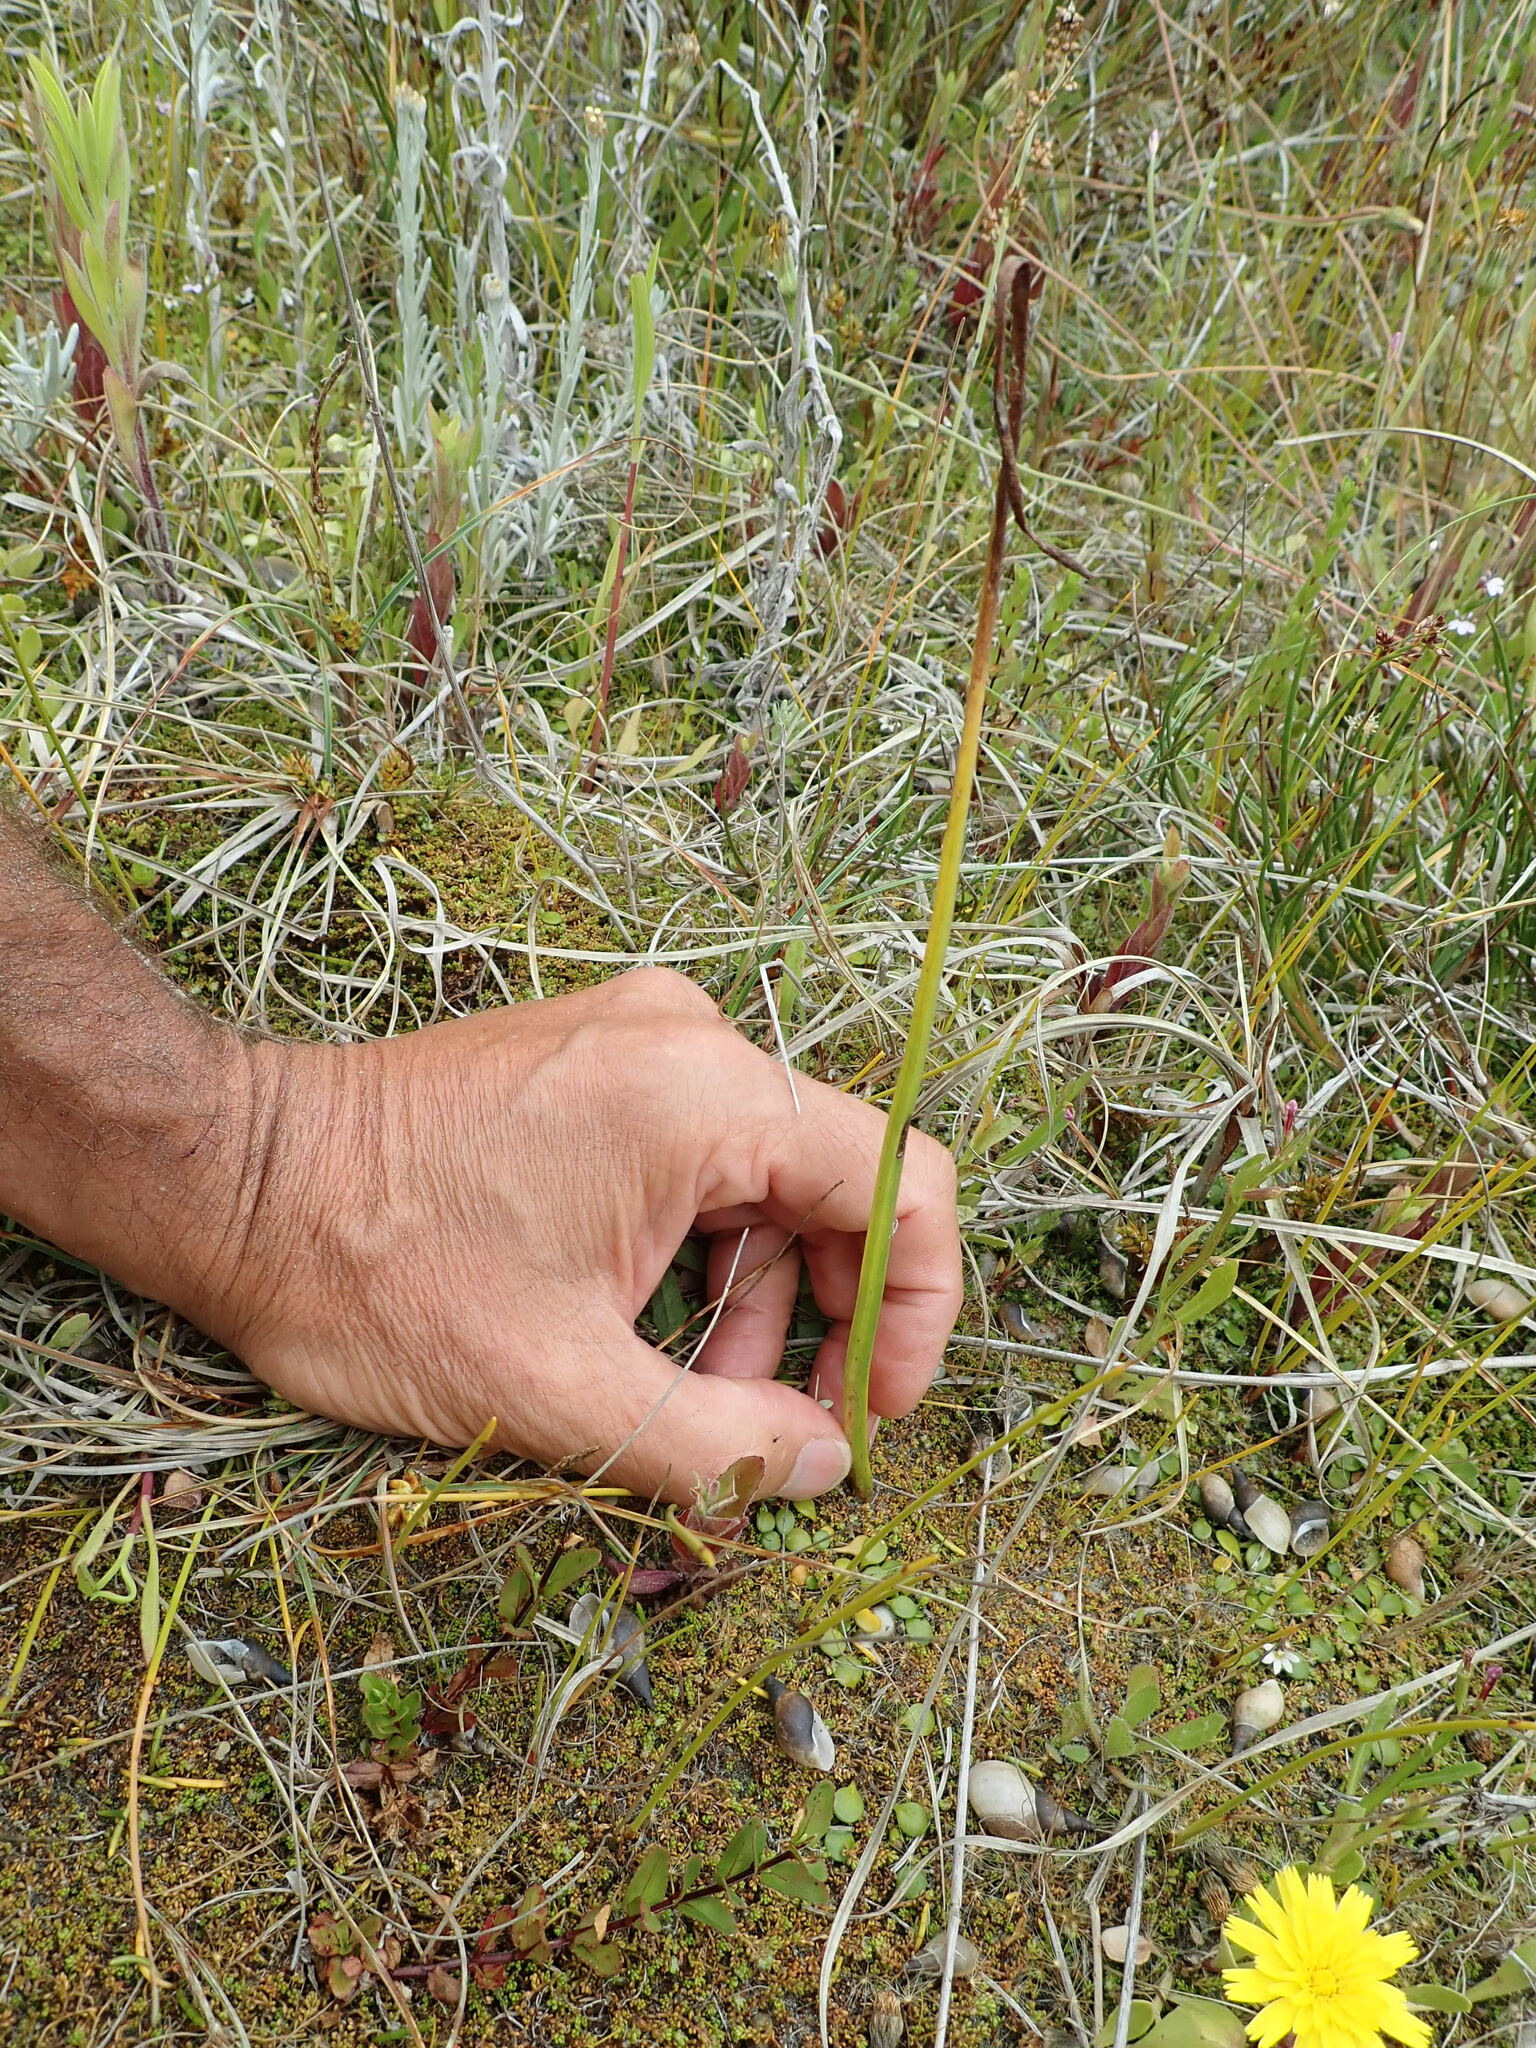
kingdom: Plantae
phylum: Tracheophyta
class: Liliopsida
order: Asparagales
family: Orchidaceae
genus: Microtis
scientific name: Microtis unifolia
